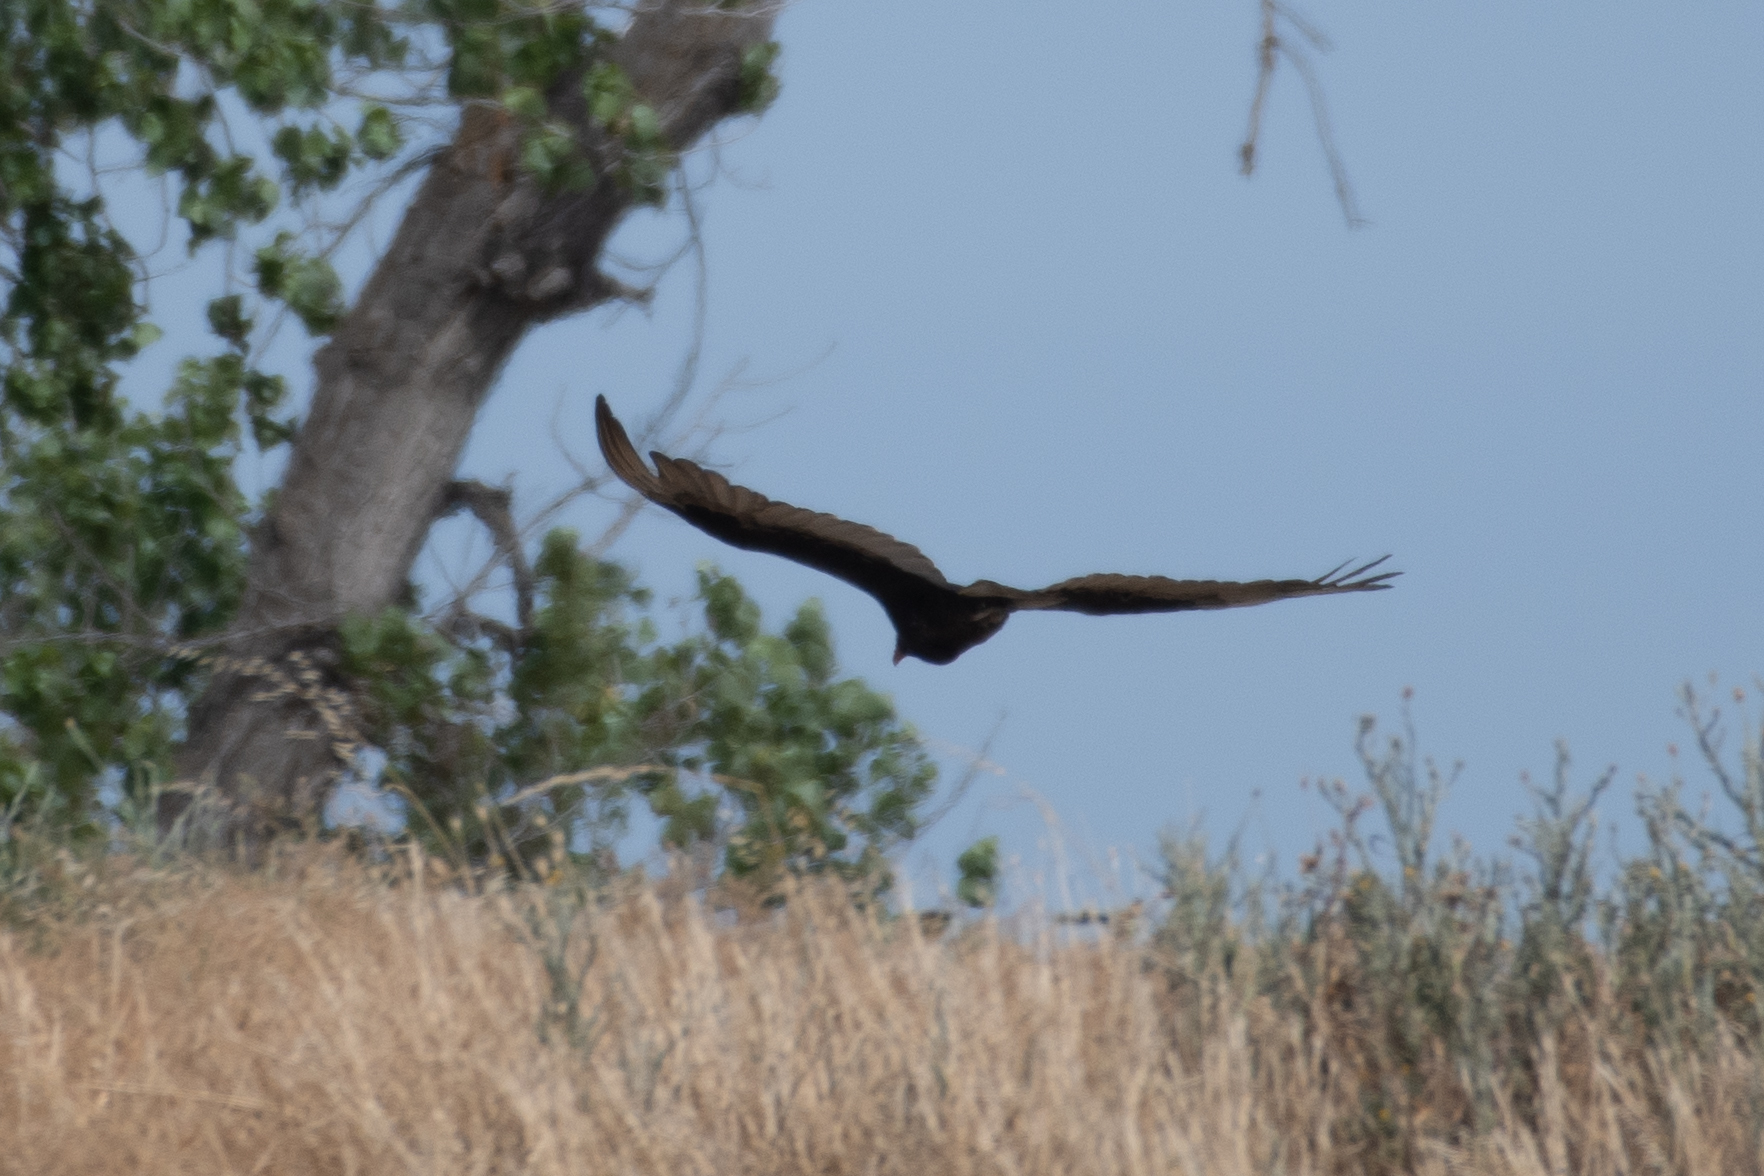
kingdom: Animalia
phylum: Chordata
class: Aves
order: Accipitriformes
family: Cathartidae
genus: Cathartes
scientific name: Cathartes aura
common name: Turkey vulture
